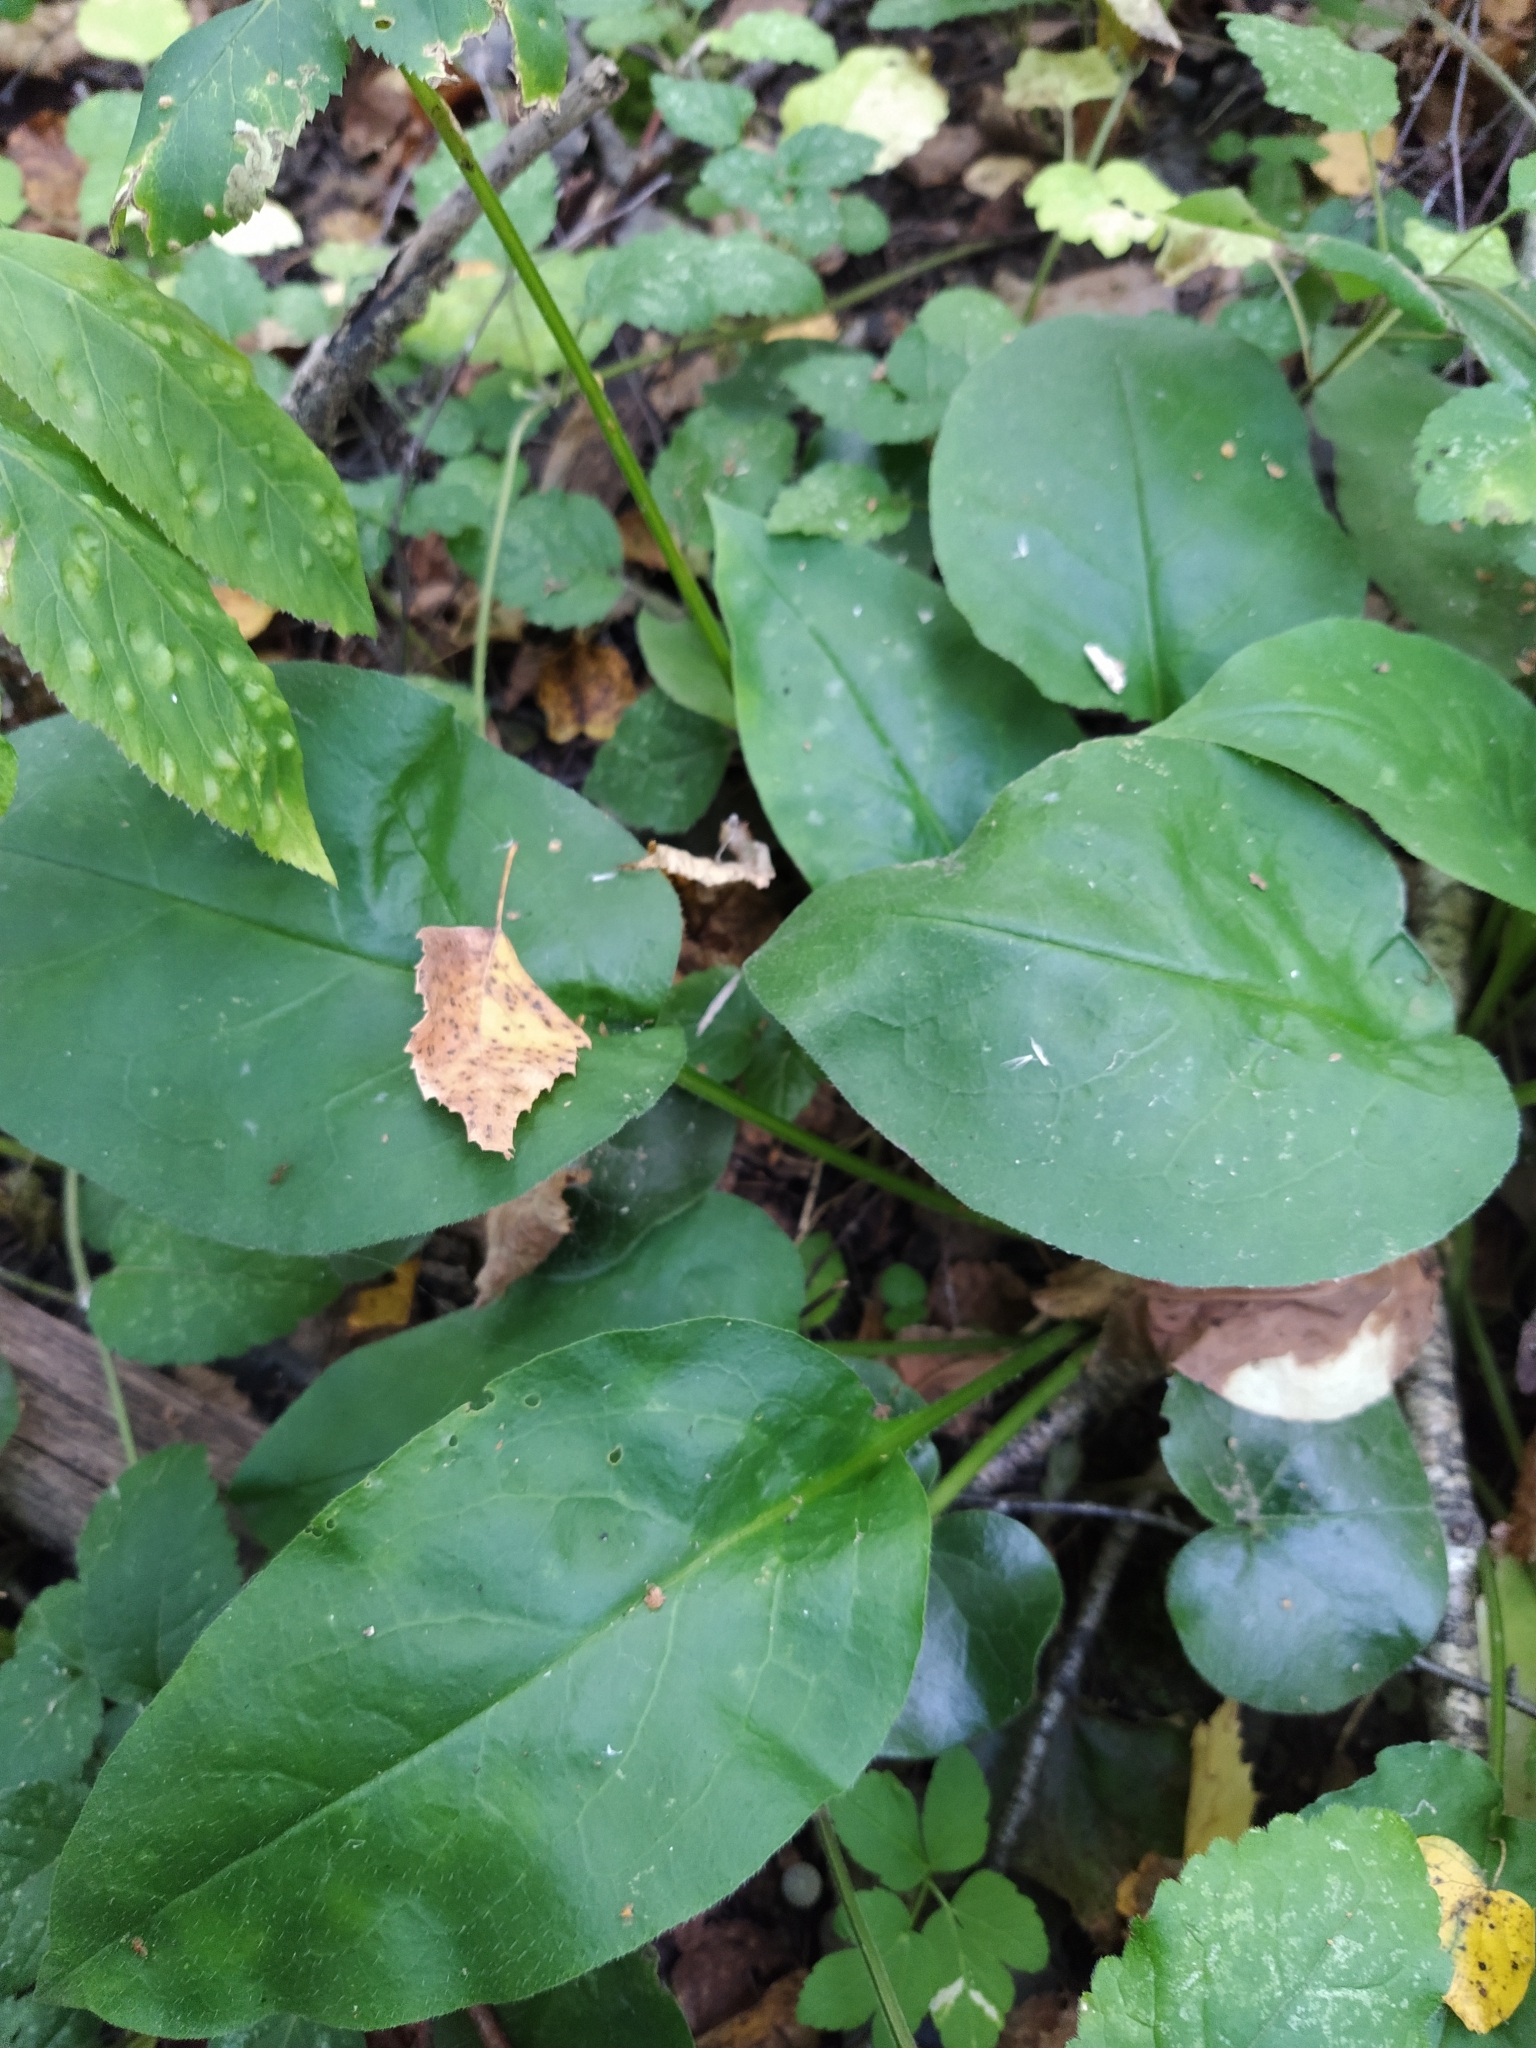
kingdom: Plantae
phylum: Tracheophyta
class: Magnoliopsida
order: Boraginales
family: Boraginaceae
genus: Pulmonaria
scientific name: Pulmonaria obscura
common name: Suffolk lungwort
